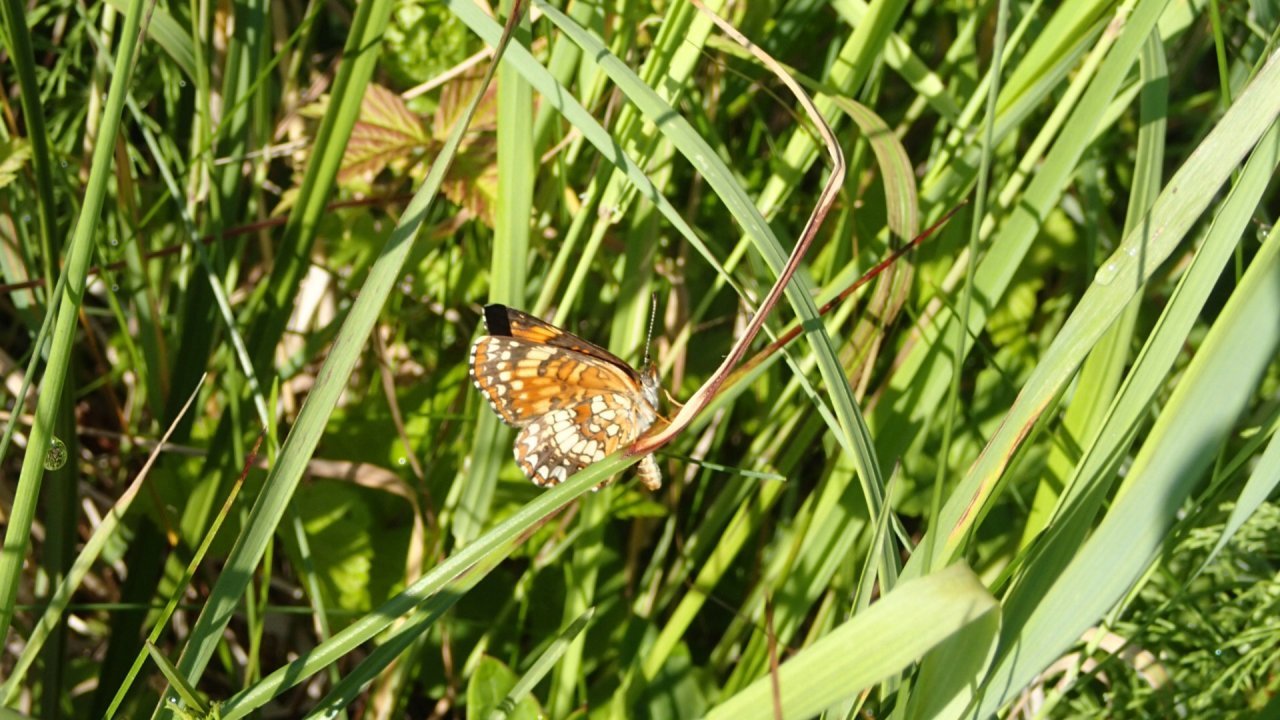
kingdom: Animalia
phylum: Arthropoda
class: Insecta
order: Lepidoptera
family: Nymphalidae
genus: Chlosyne
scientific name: Chlosyne harrisii
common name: Harris's checkerspot
